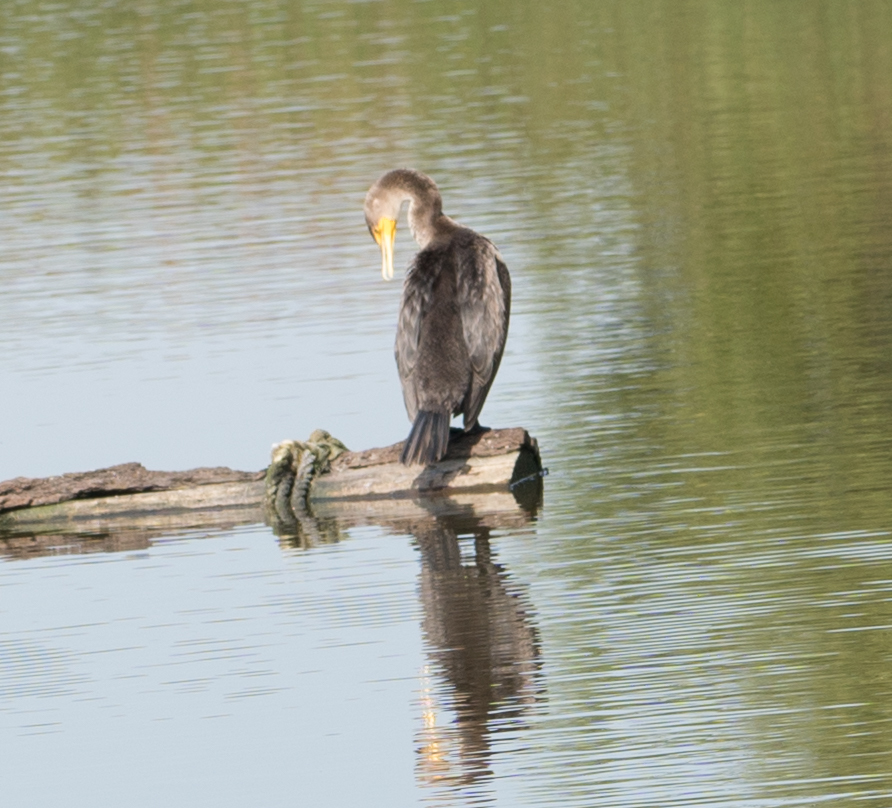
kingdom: Animalia
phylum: Chordata
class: Aves
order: Suliformes
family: Phalacrocoracidae
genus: Phalacrocorax
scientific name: Phalacrocorax auritus
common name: Double-crested cormorant
